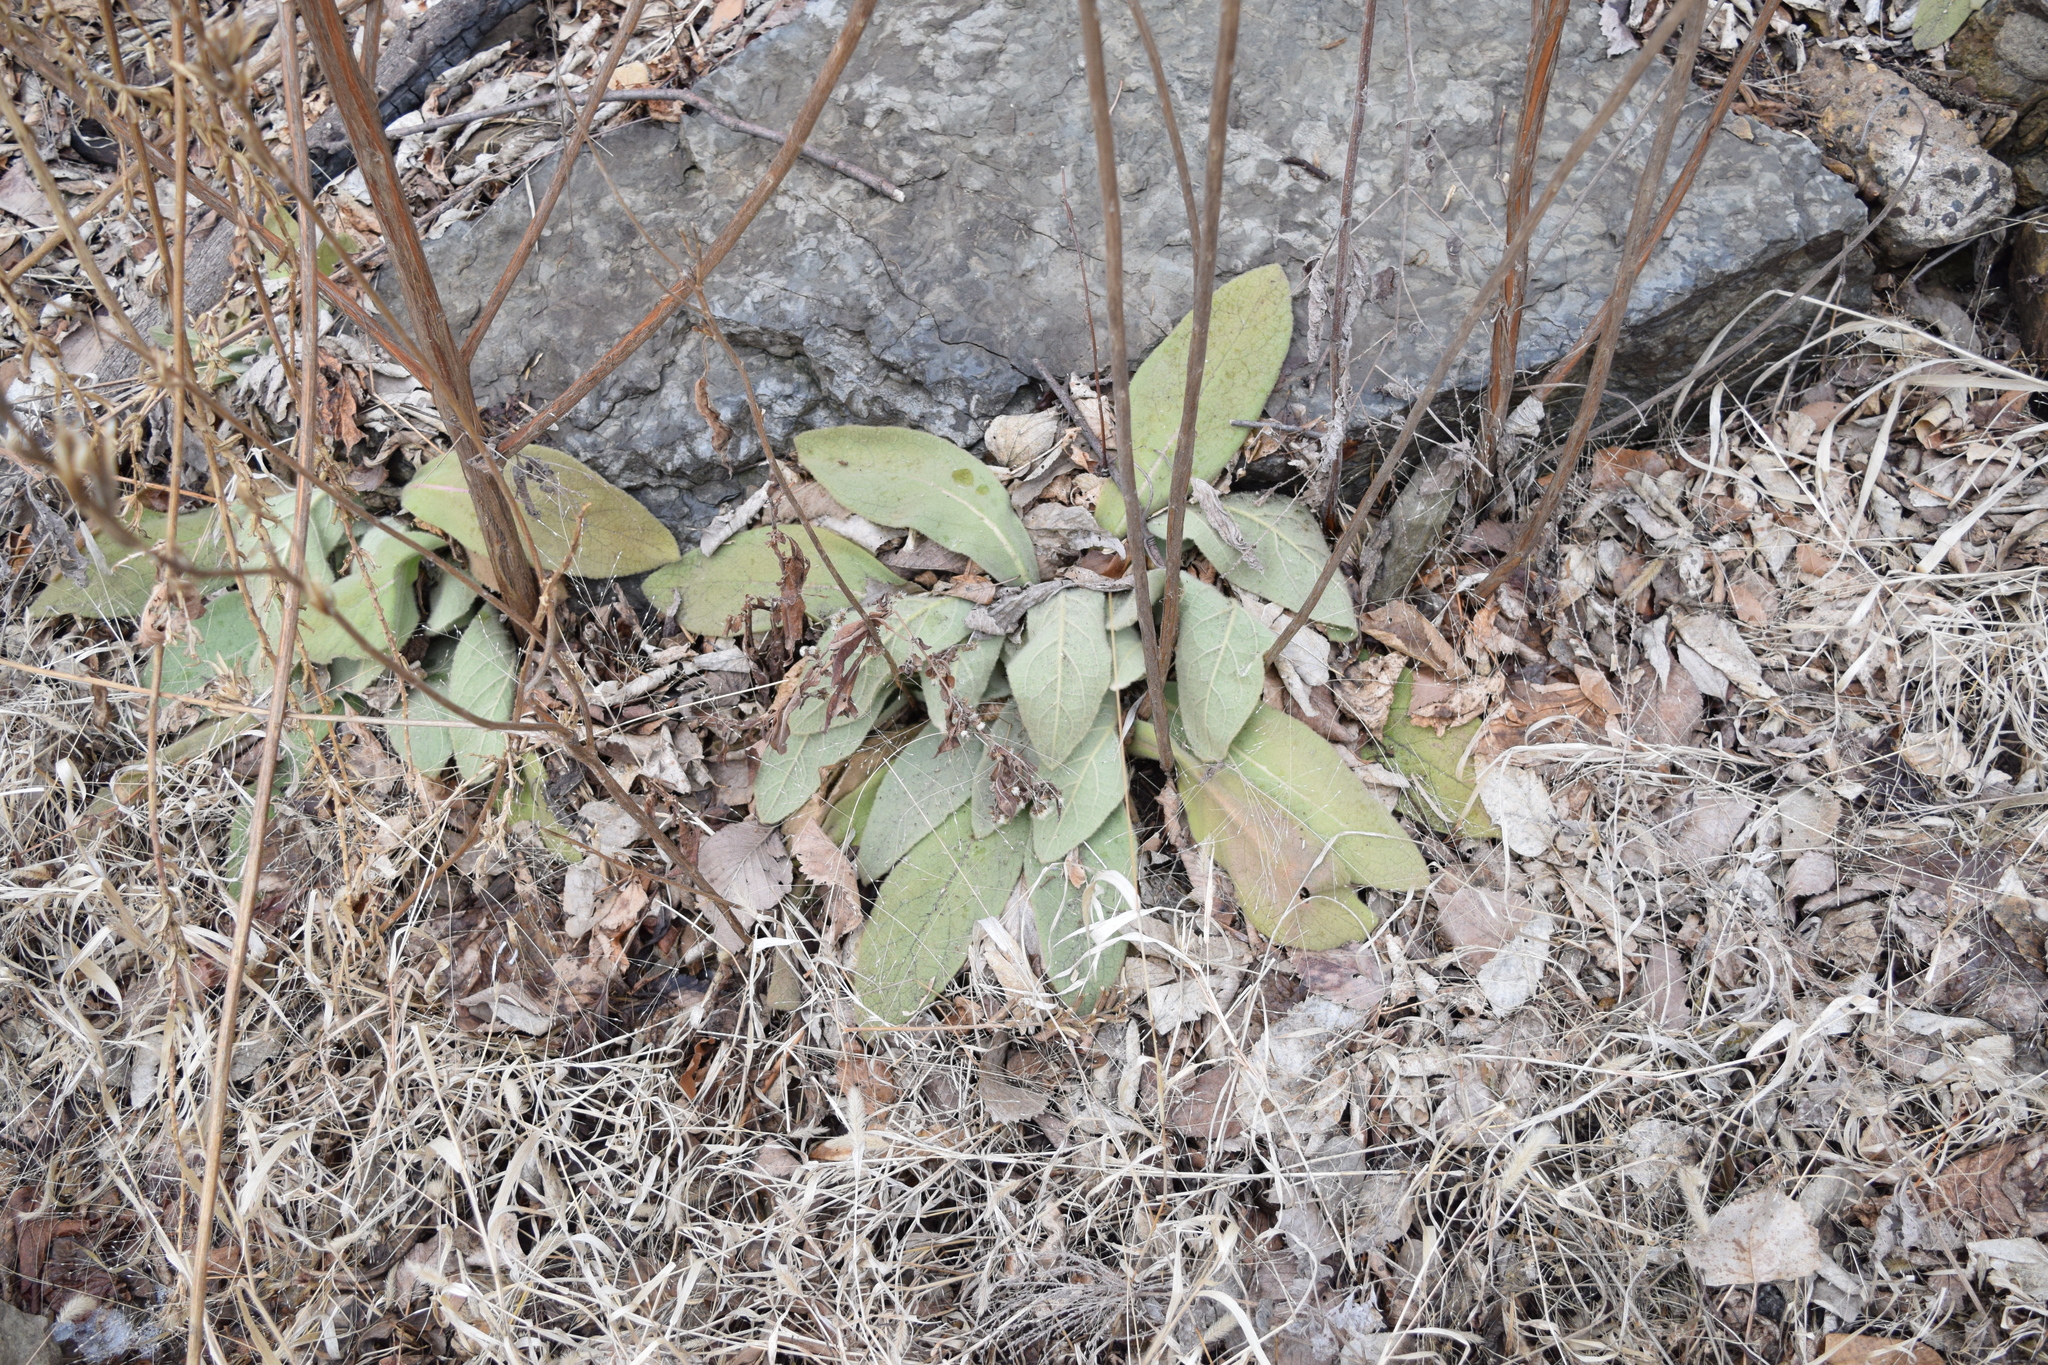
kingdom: Plantae
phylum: Tracheophyta
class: Magnoliopsida
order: Lamiales
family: Scrophulariaceae
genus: Verbascum
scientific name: Verbascum thapsus
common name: Common mullein
